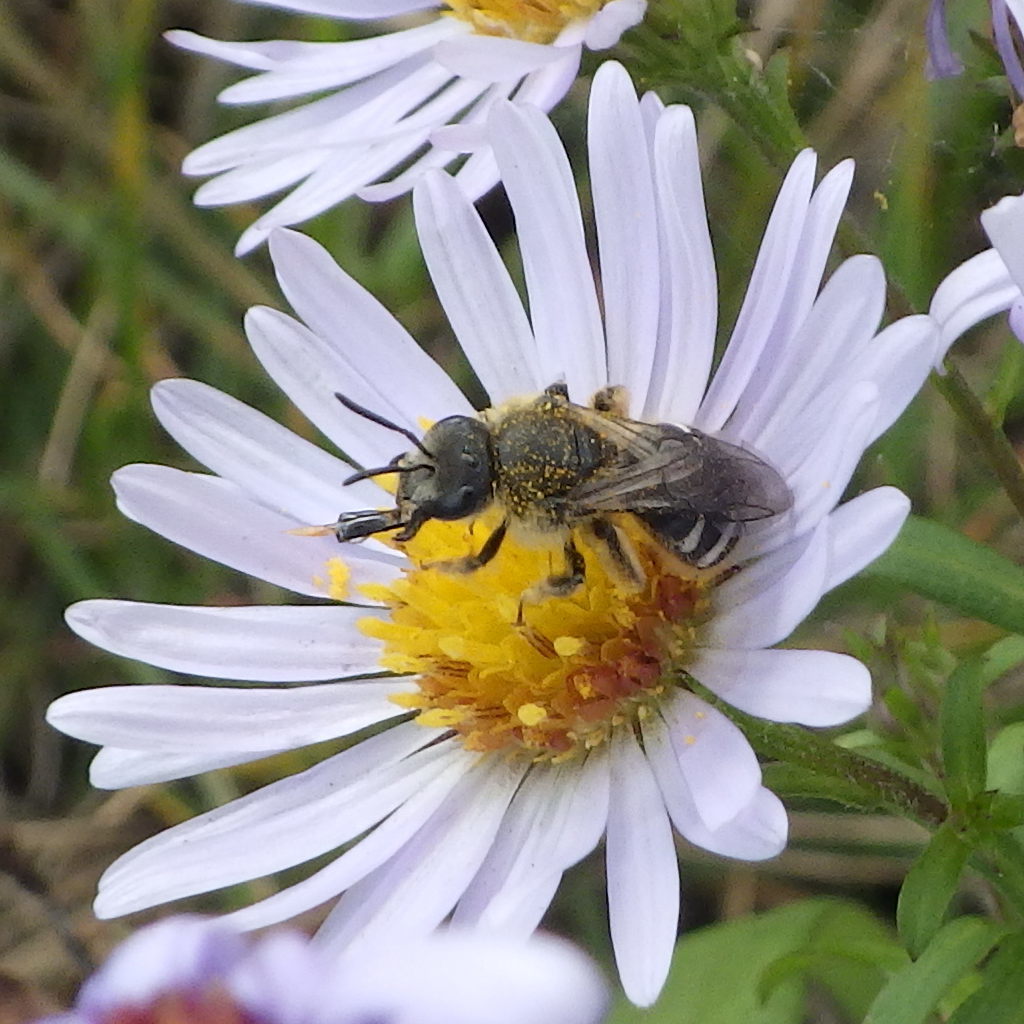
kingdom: Animalia
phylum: Arthropoda
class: Insecta
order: Hymenoptera
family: Halictidae
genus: Lasioglossum
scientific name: Lasioglossum leucozonium
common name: White-zoned furrow bee
